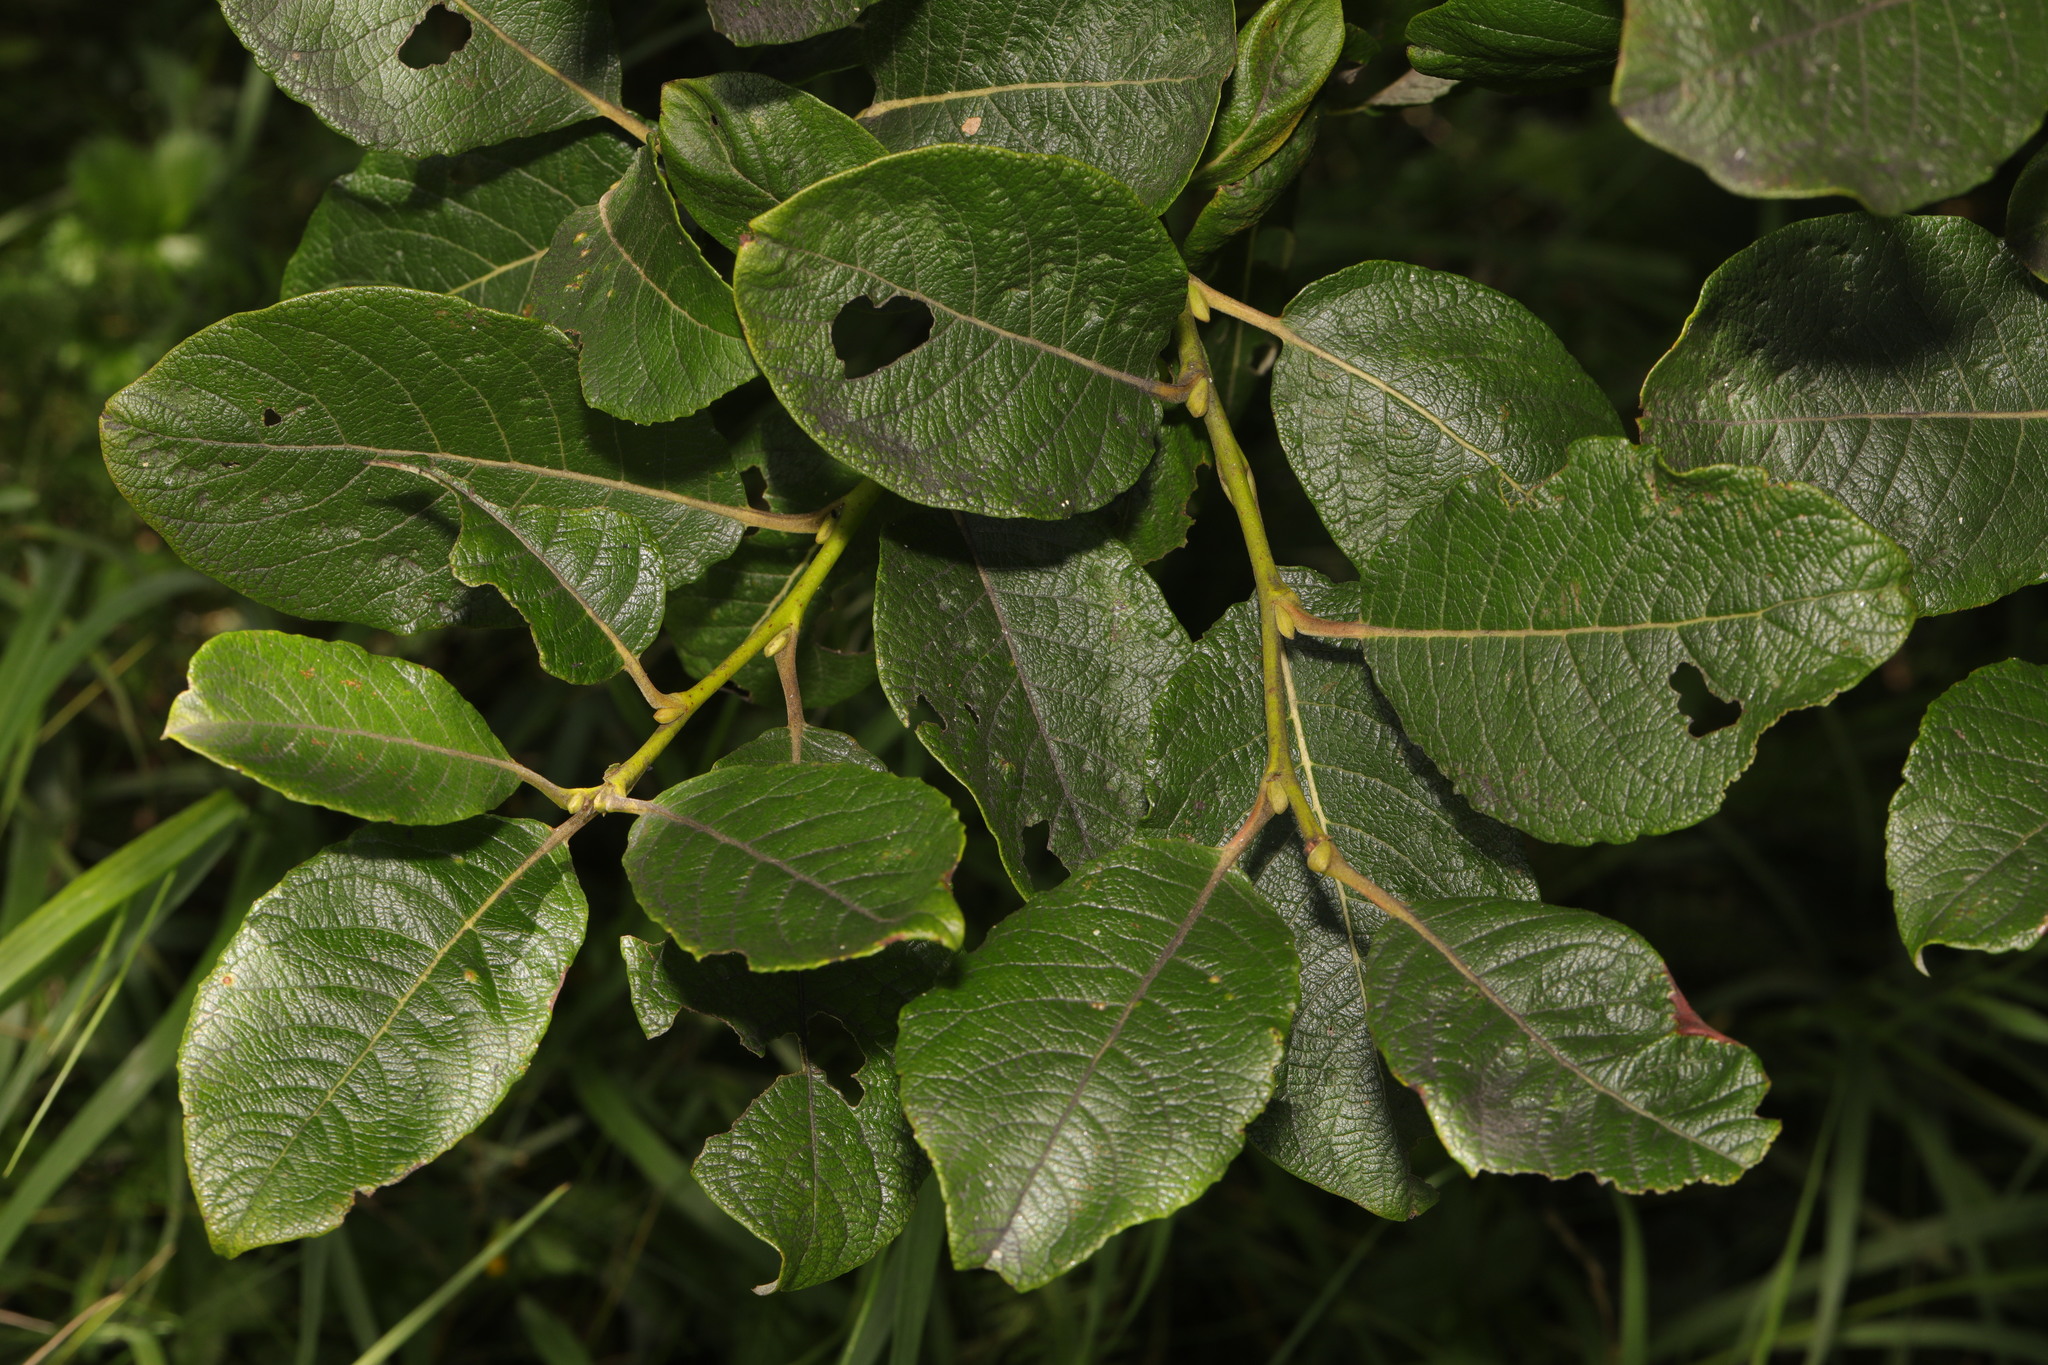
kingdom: Plantae
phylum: Tracheophyta
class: Magnoliopsida
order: Malpighiales
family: Salicaceae
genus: Salix
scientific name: Salix caprea
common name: Goat willow
